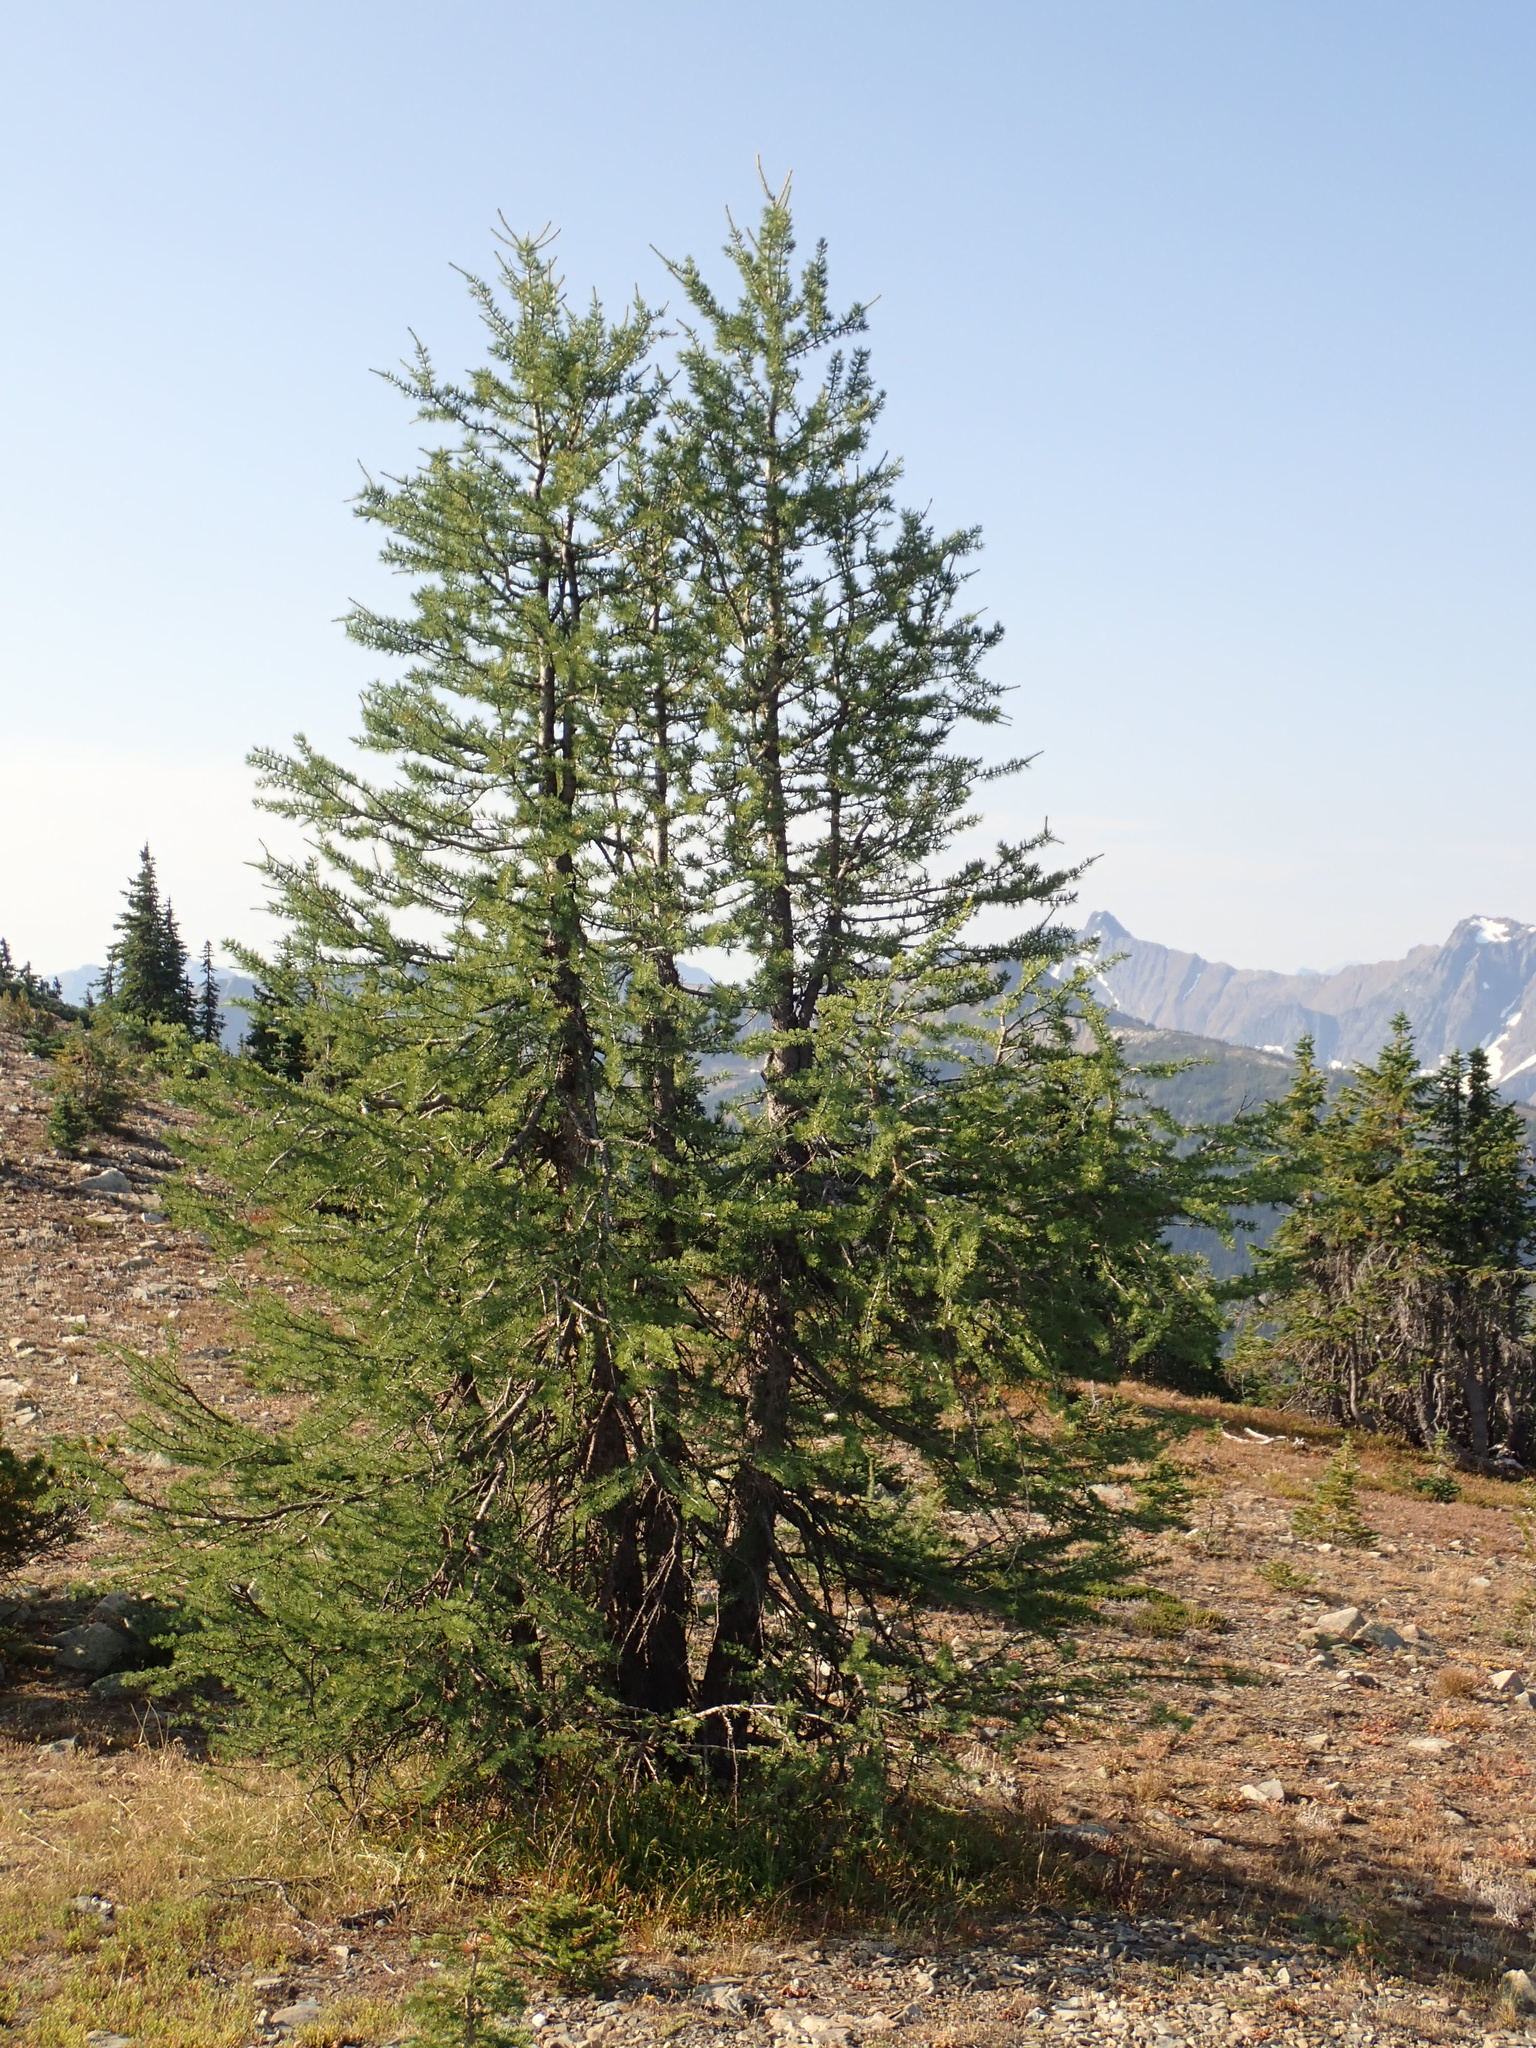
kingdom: Plantae
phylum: Tracheophyta
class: Pinopsida
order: Pinales
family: Pinaceae
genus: Larix
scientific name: Larix lyallii
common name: Alpine larch
